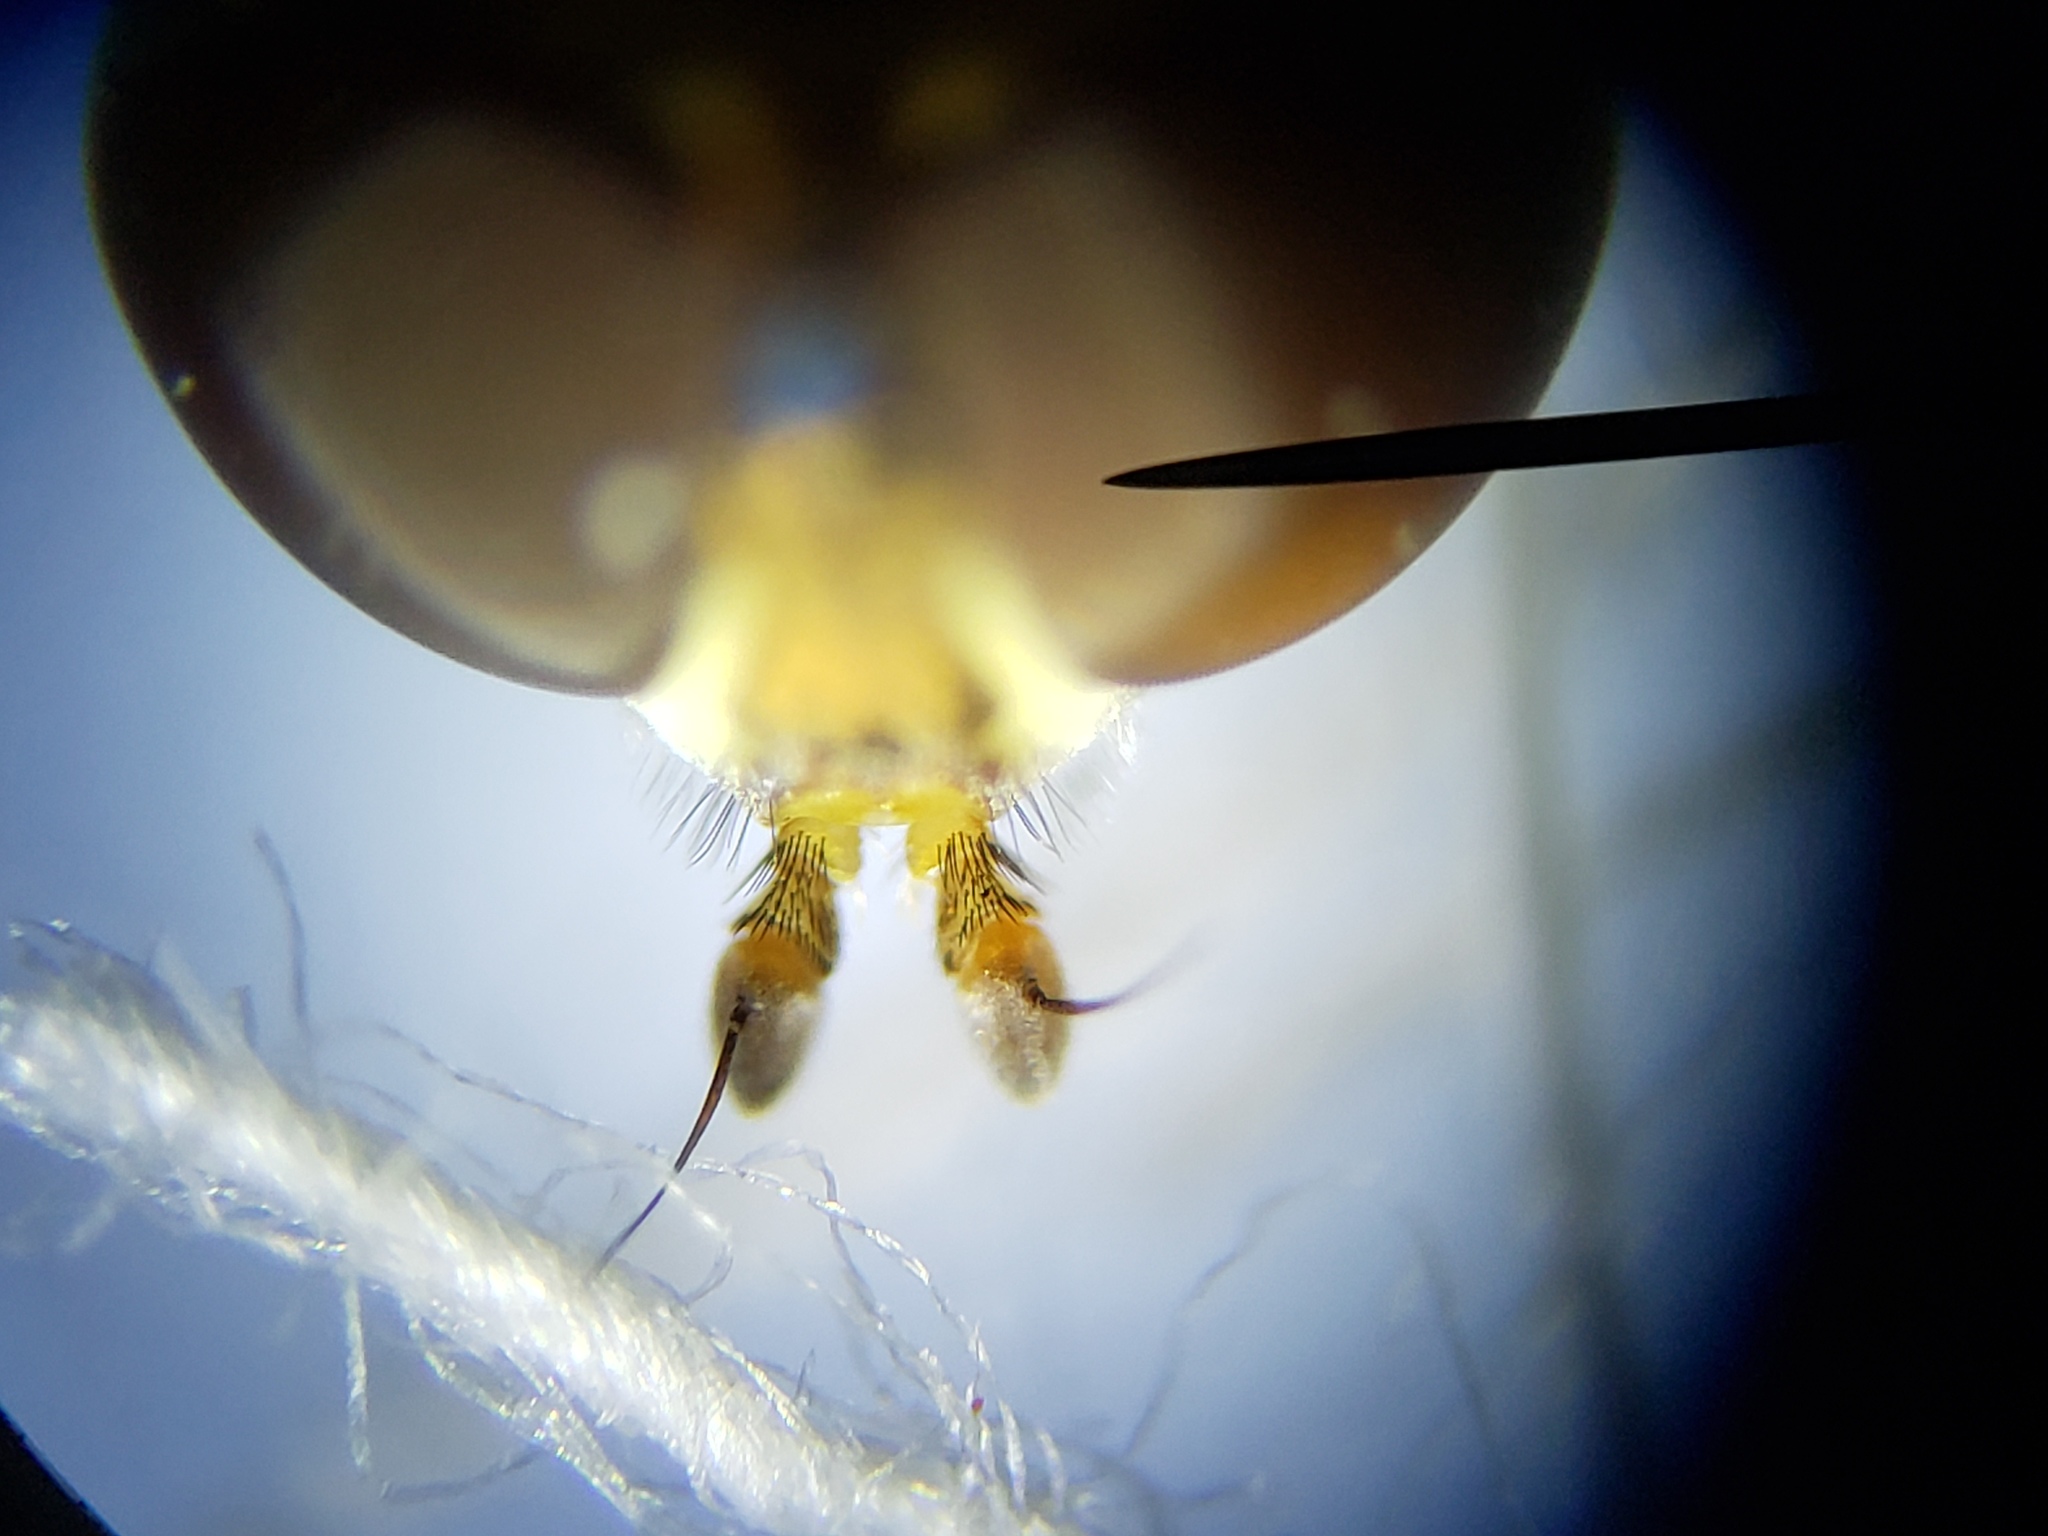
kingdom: Animalia
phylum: Arthropoda
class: Insecta
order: Diptera
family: Syrphidae
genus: Toxomerus
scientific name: Toxomerus politus
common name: Maize calligrapher
